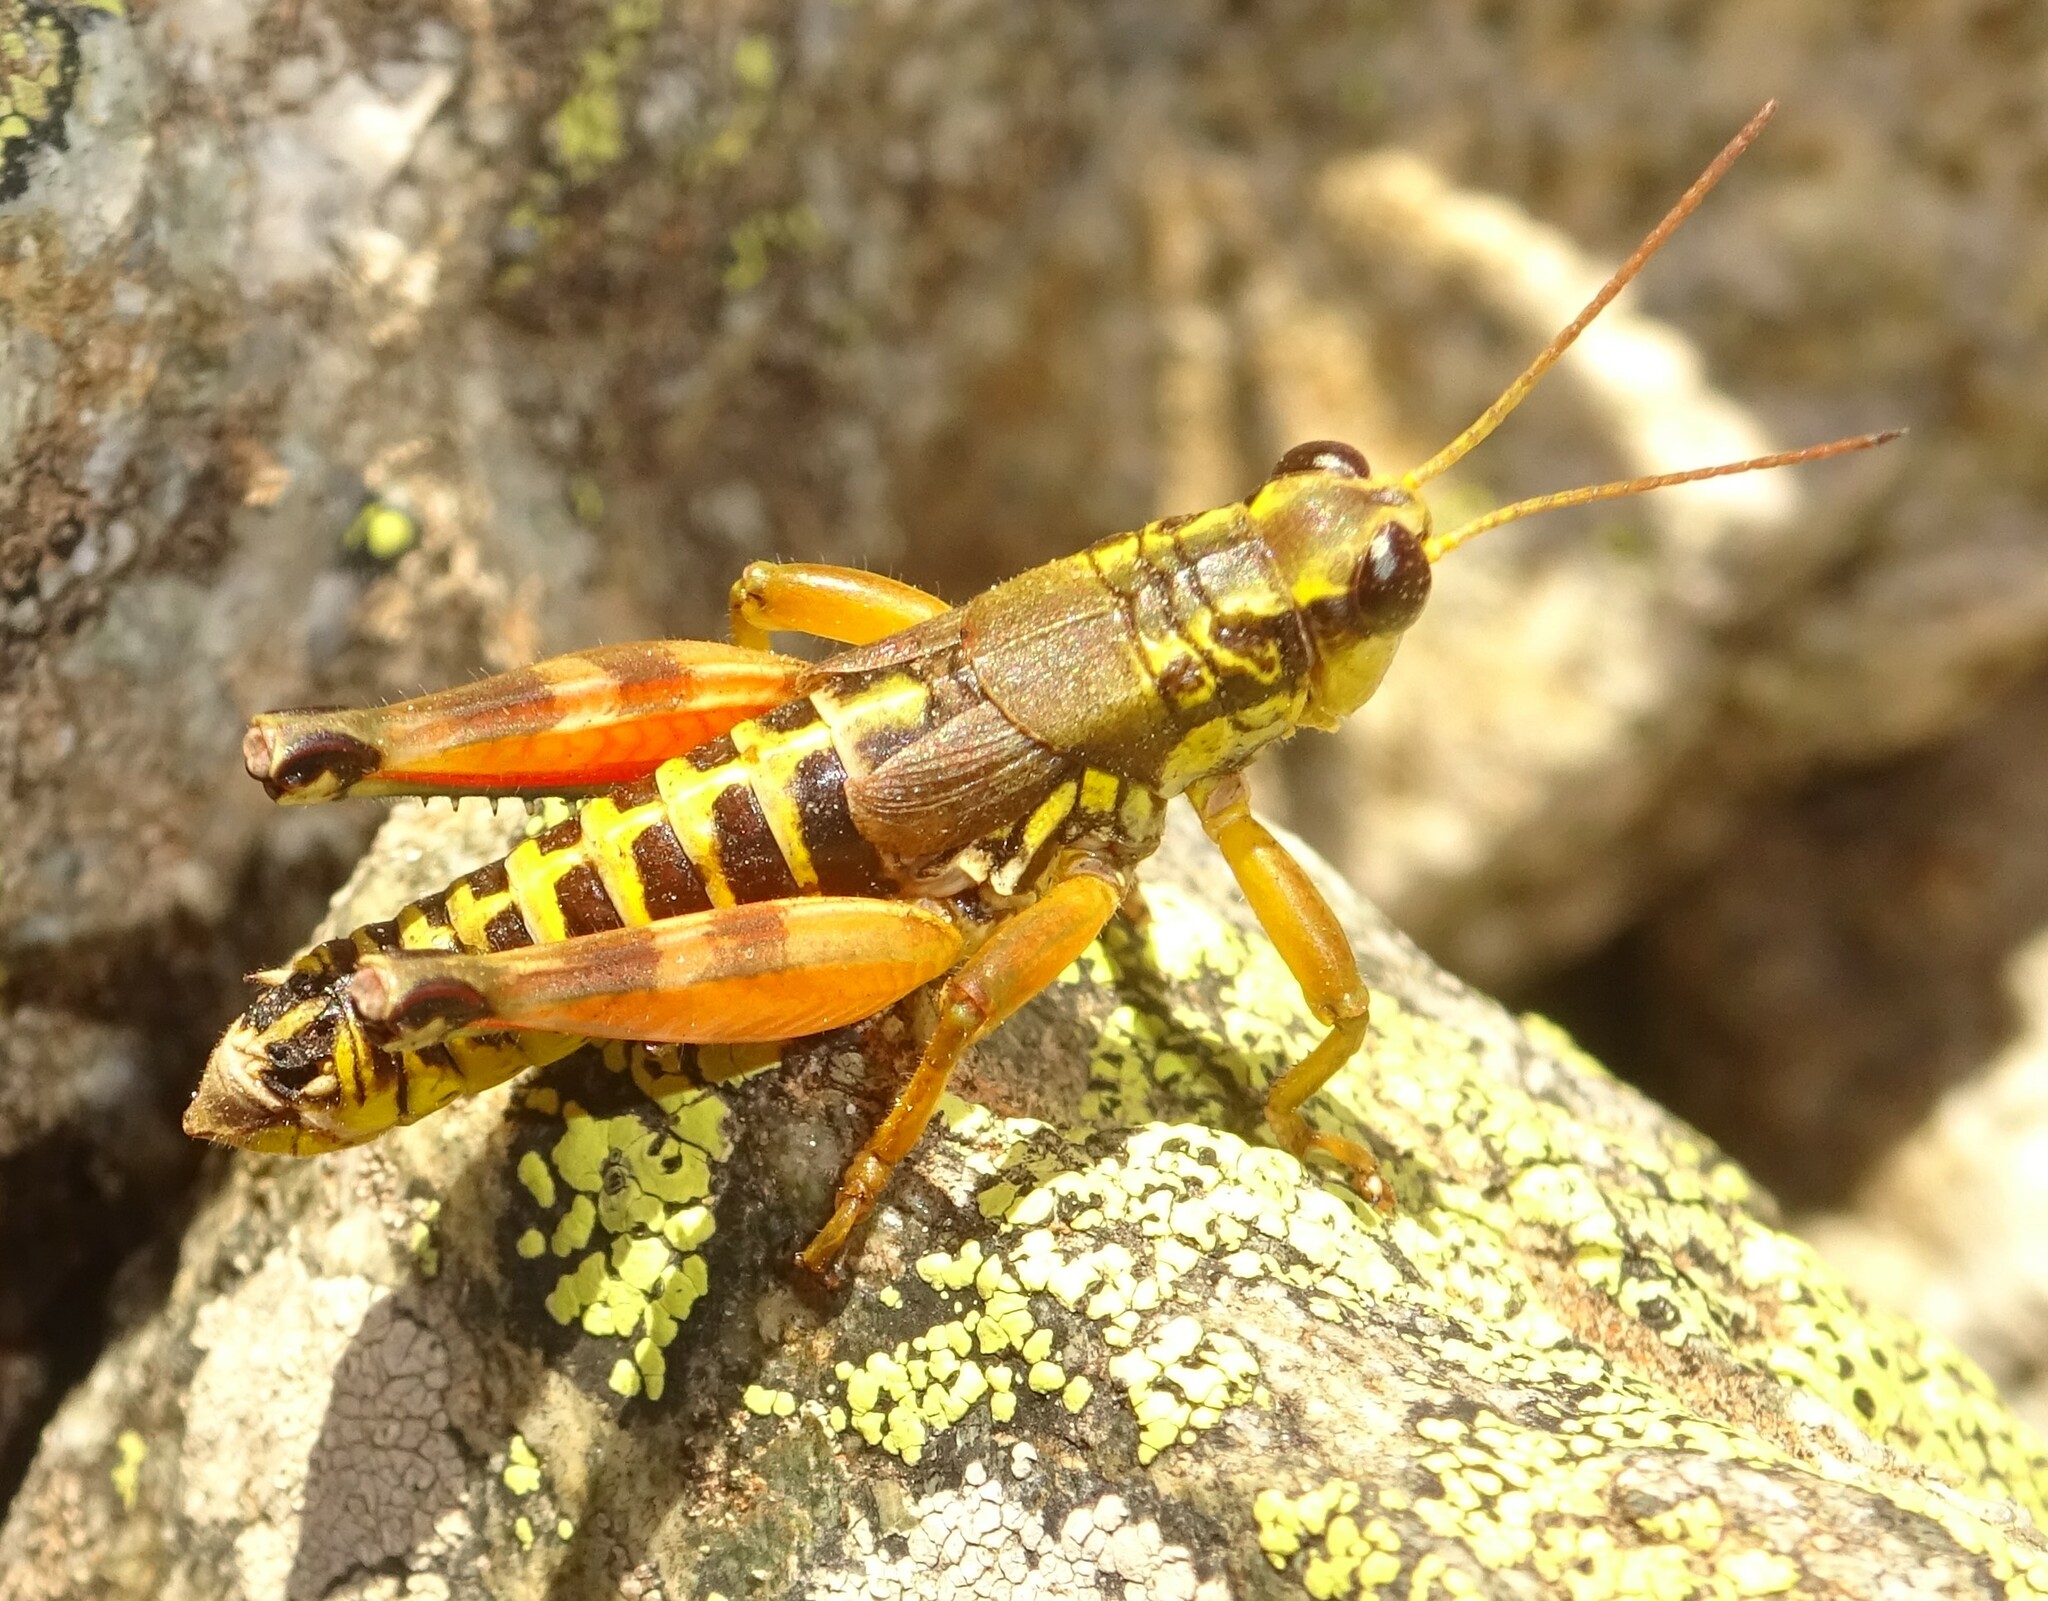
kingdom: Animalia
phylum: Arthropoda
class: Insecta
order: Orthoptera
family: Acrididae
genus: Podisma
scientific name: Podisma pedestris
